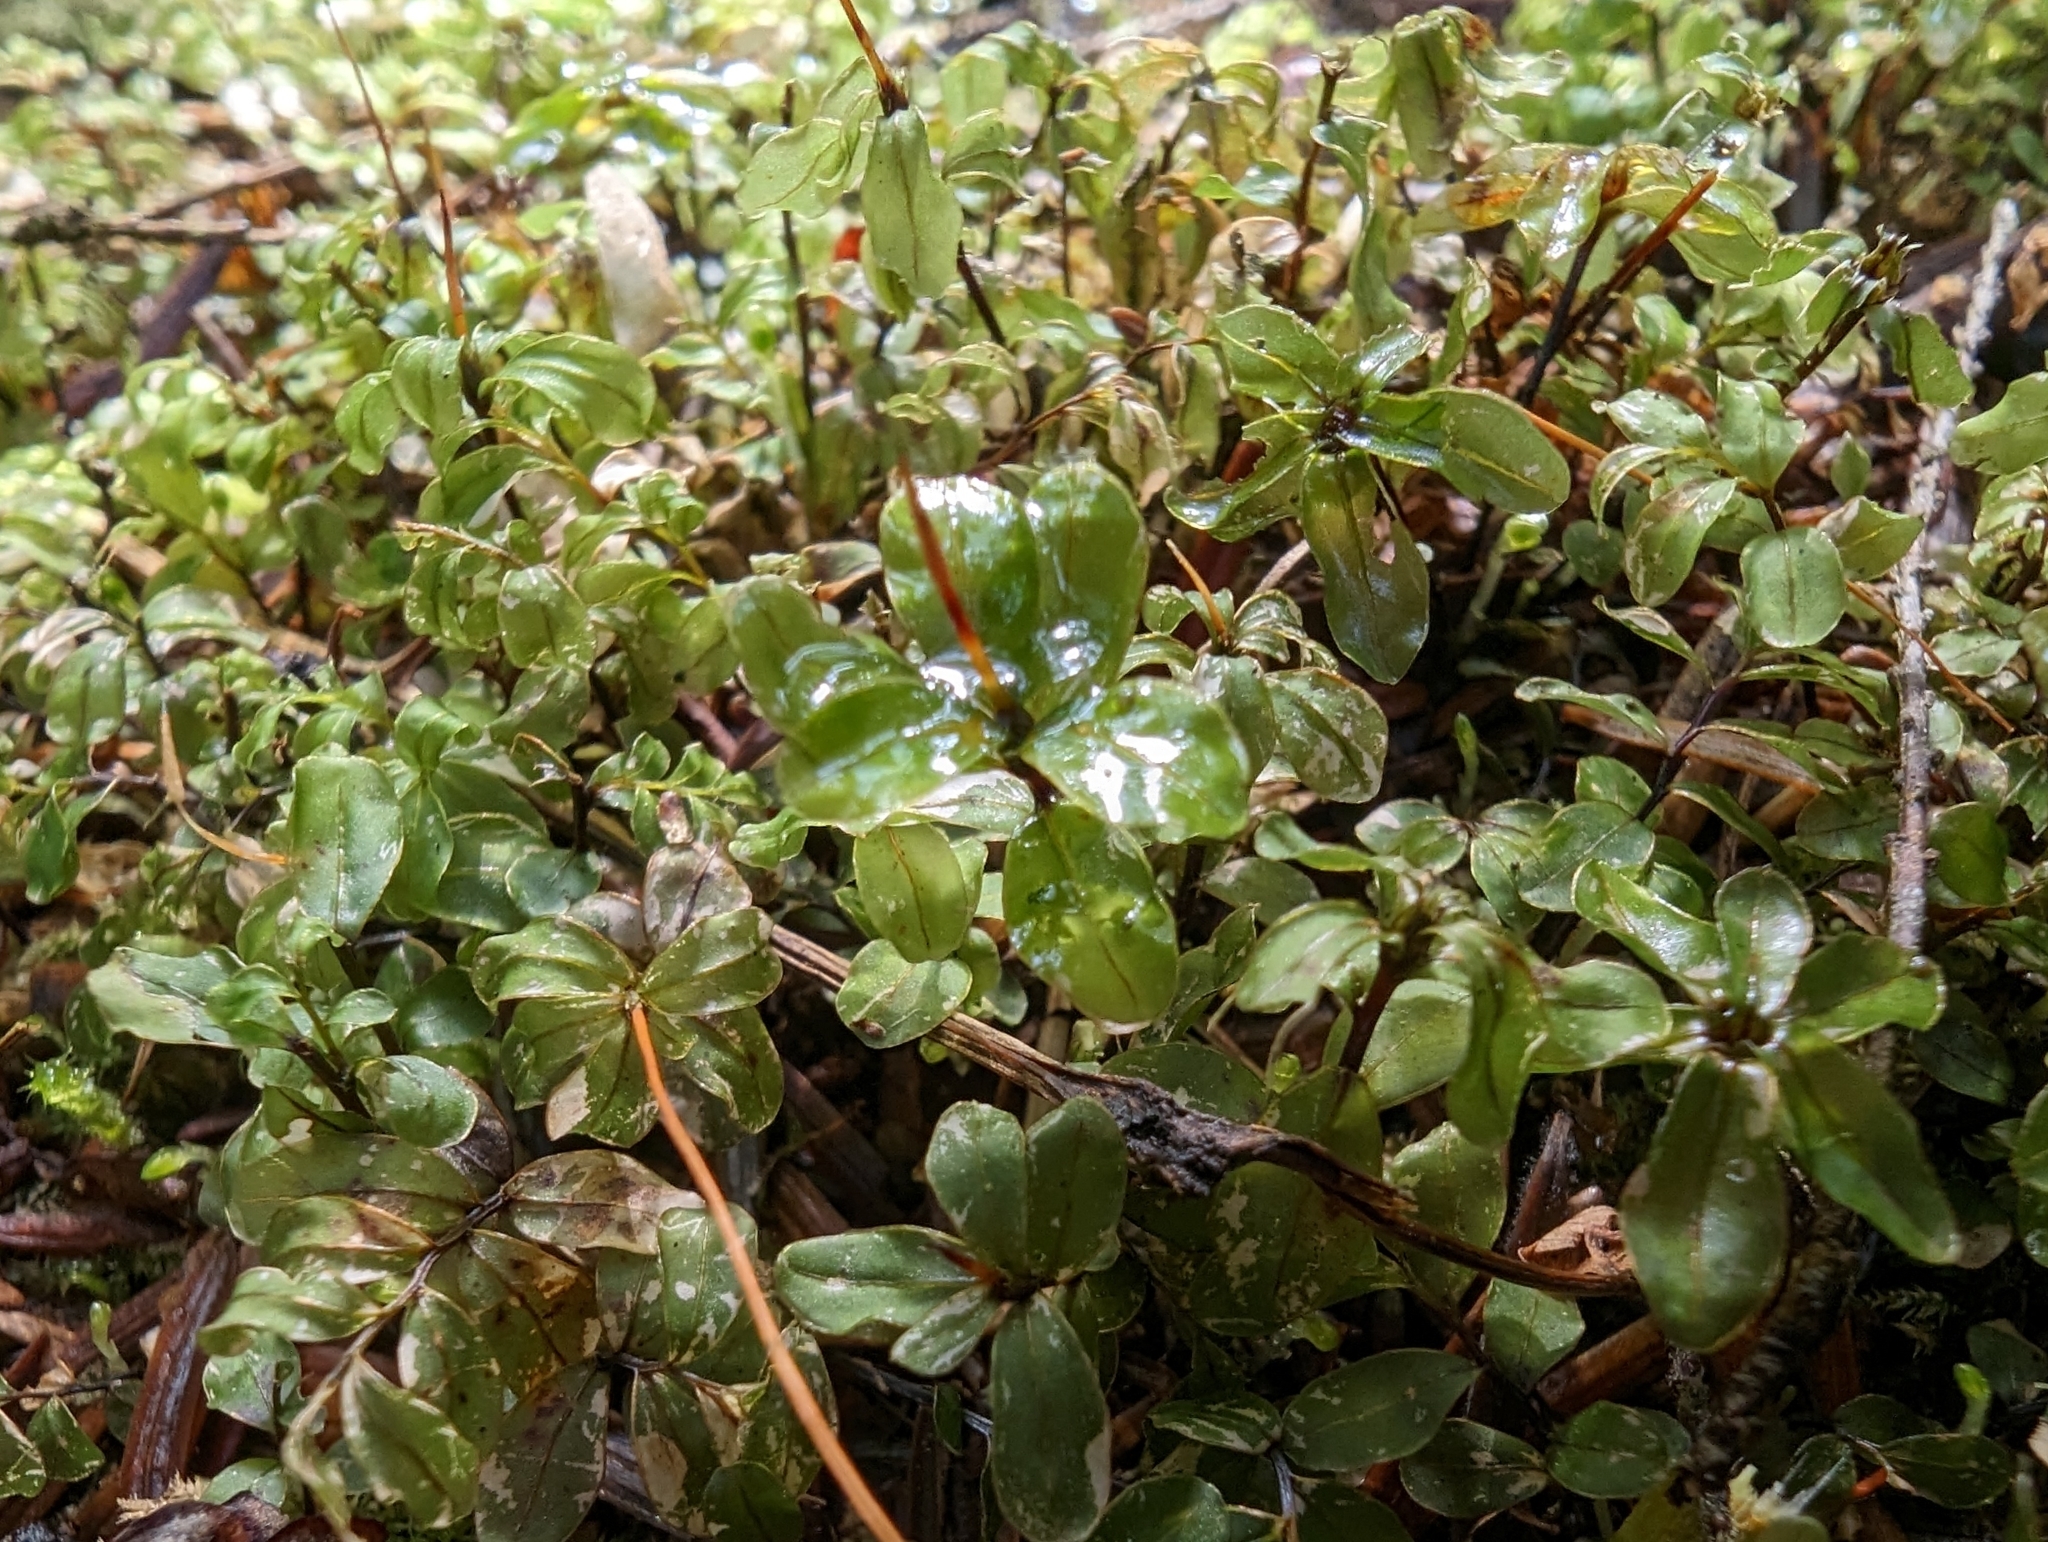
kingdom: Plantae
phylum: Bryophyta
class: Bryopsida
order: Bryales
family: Mniaceae
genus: Rhizomnium
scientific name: Rhizomnium glabrescens
